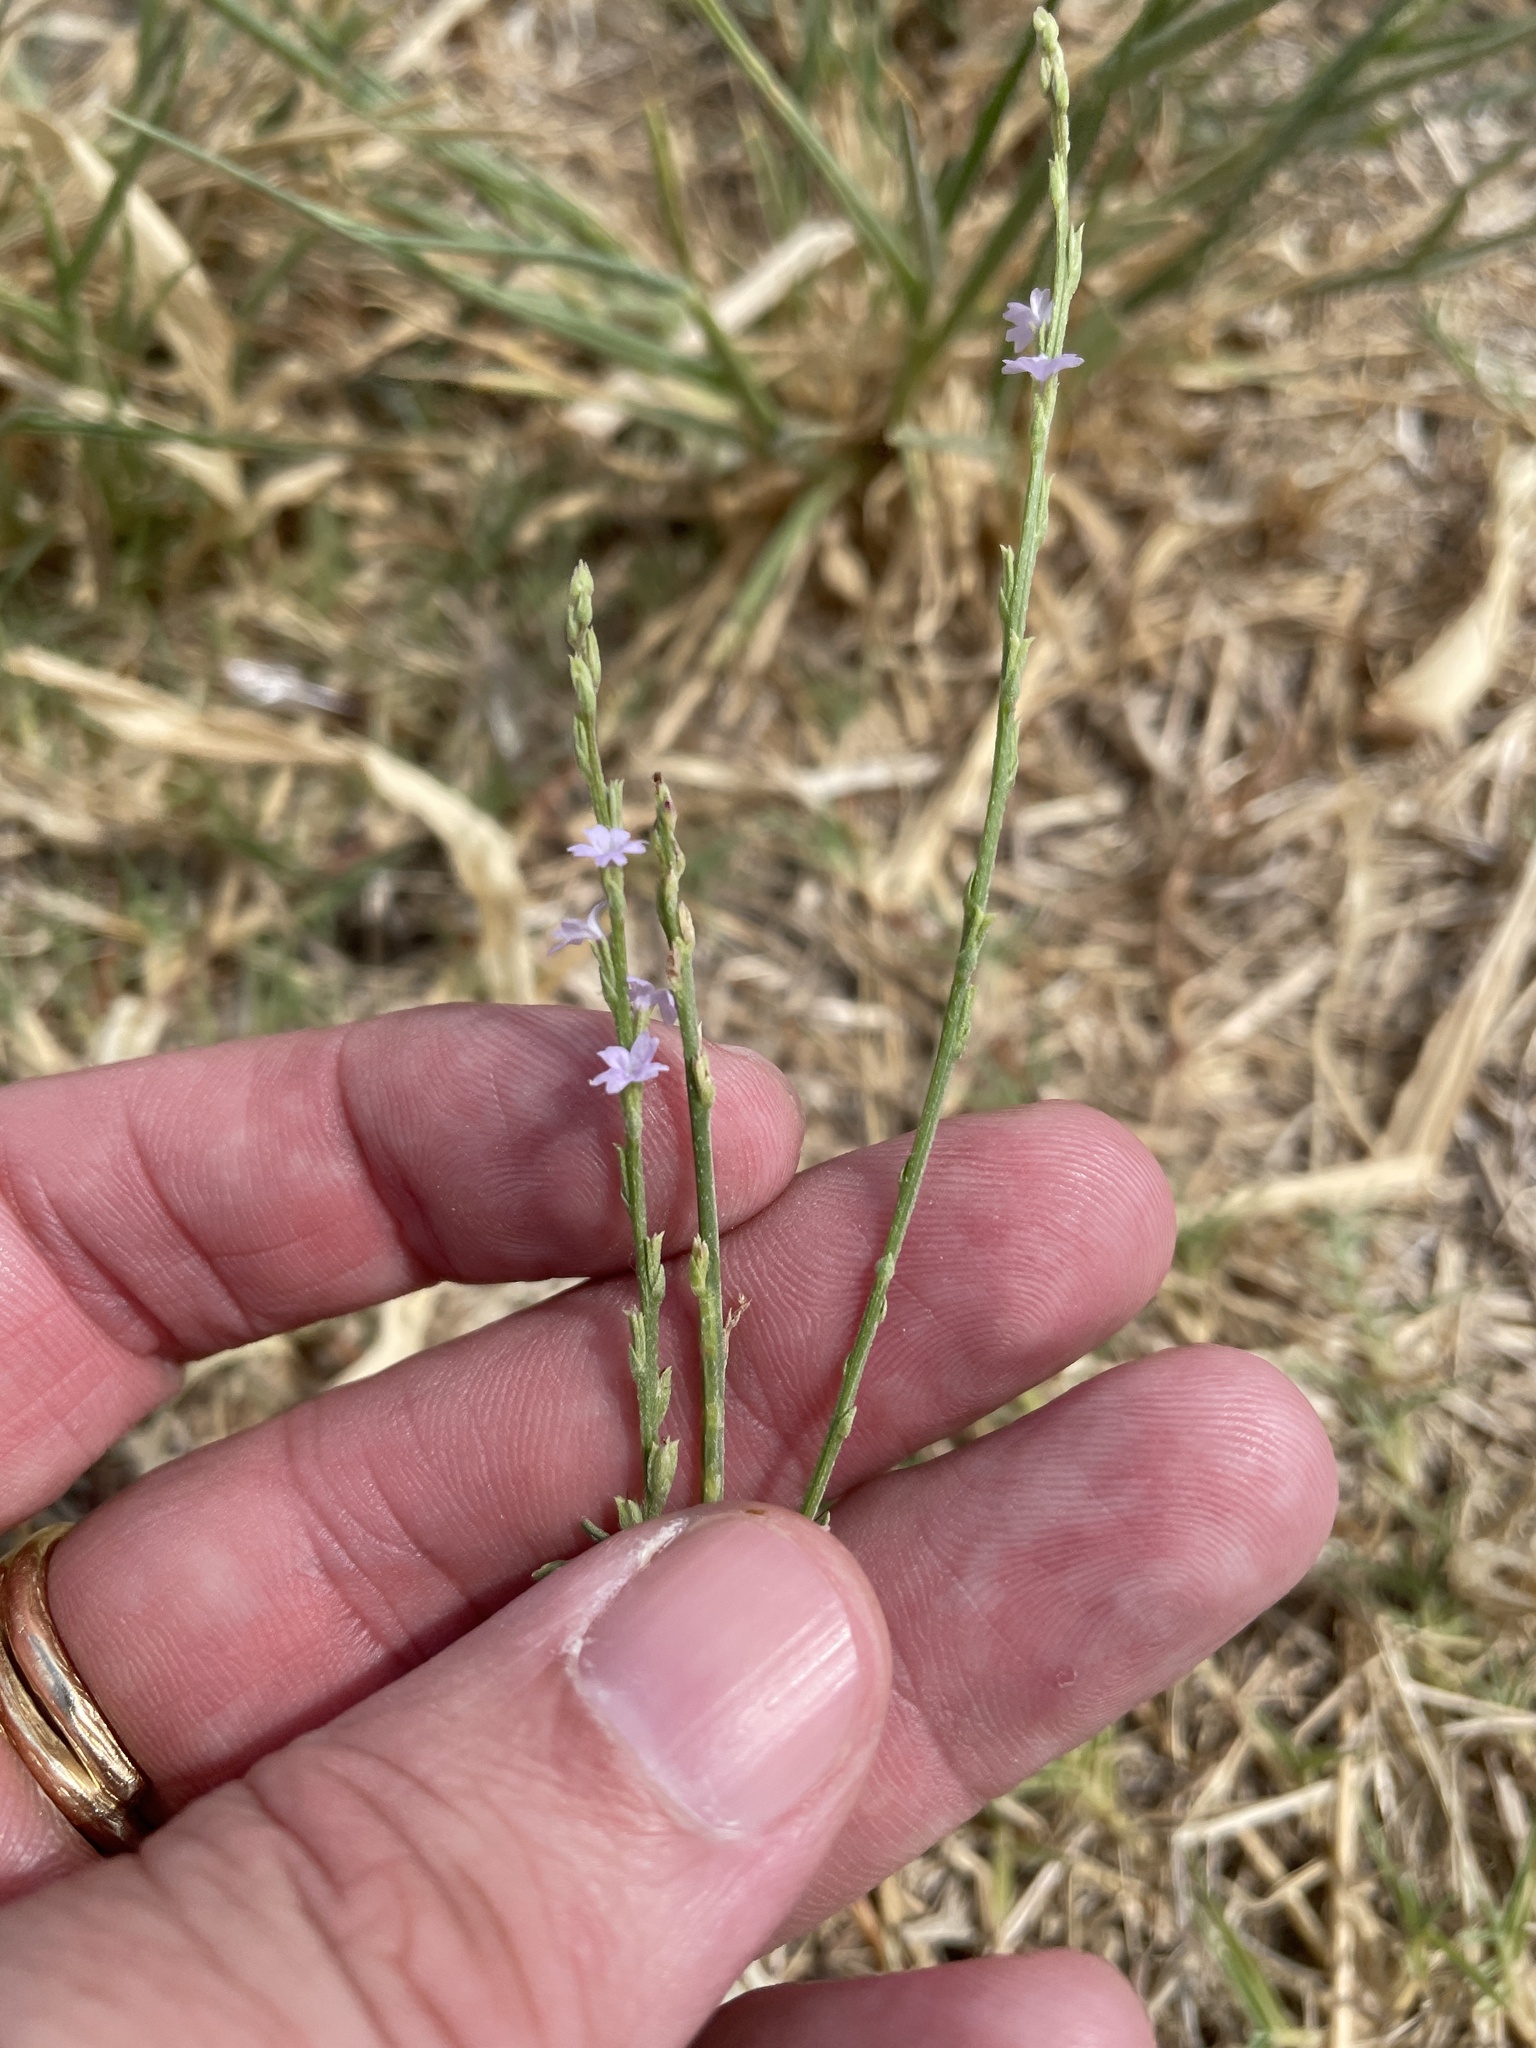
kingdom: Plantae
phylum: Tracheophyta
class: Magnoliopsida
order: Lamiales
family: Verbenaceae
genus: Verbena
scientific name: Verbena halei
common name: Texas vervain
